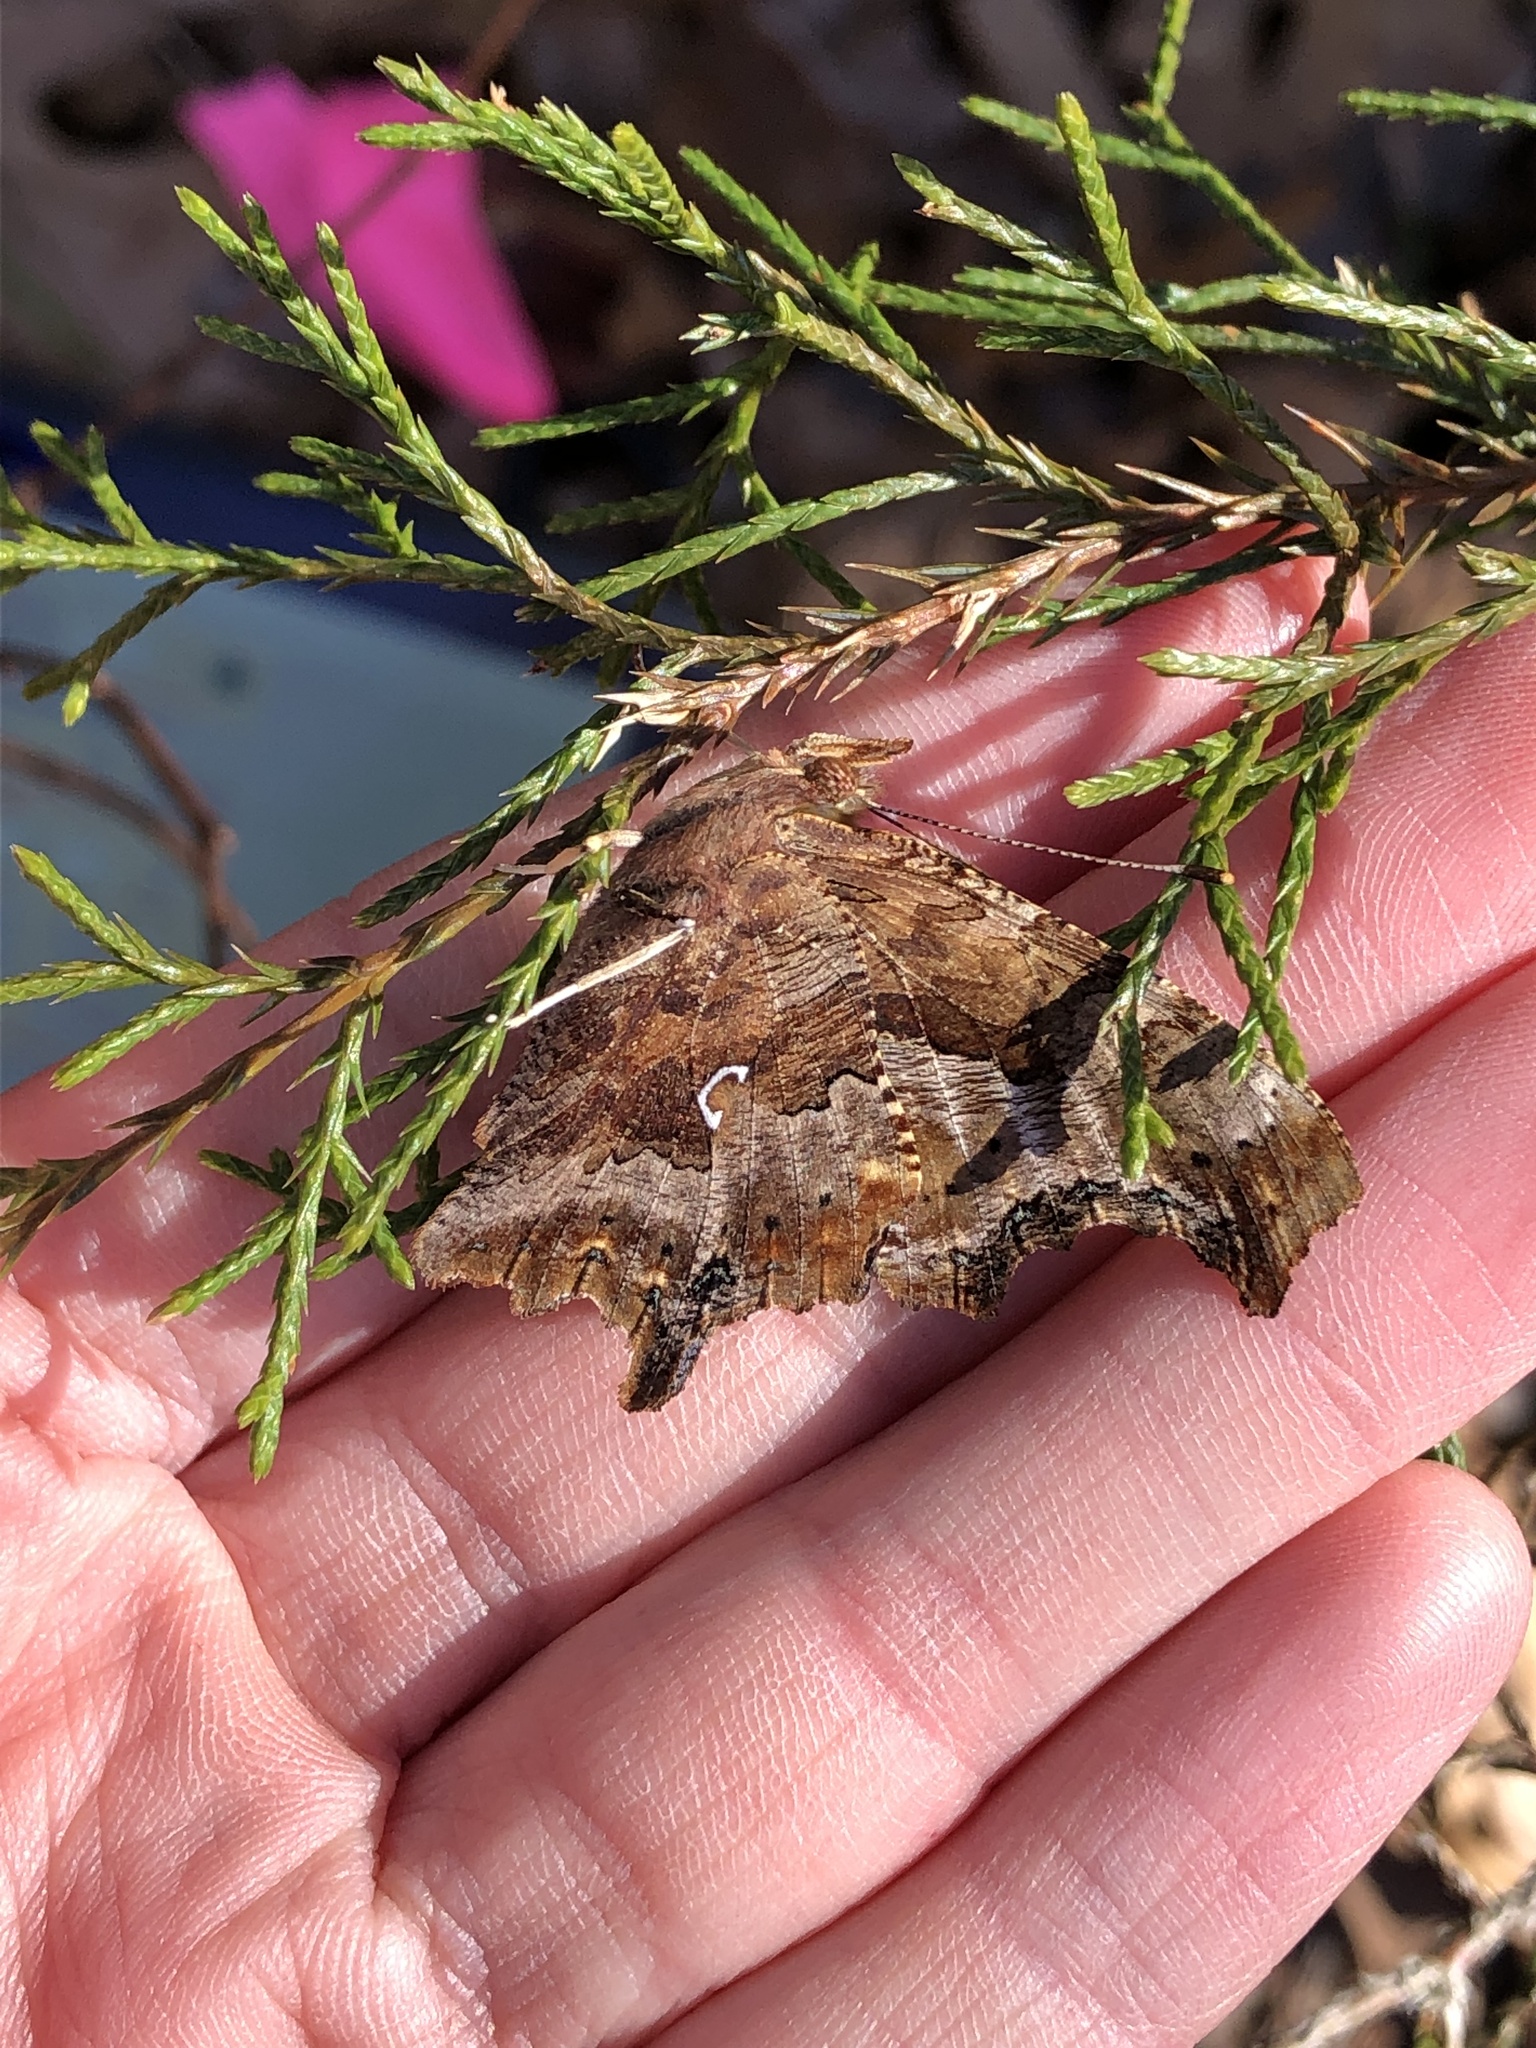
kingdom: Animalia
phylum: Arthropoda
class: Insecta
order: Lepidoptera
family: Nymphalidae
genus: Polygonia
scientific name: Polygonia comma
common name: Eastern comma
